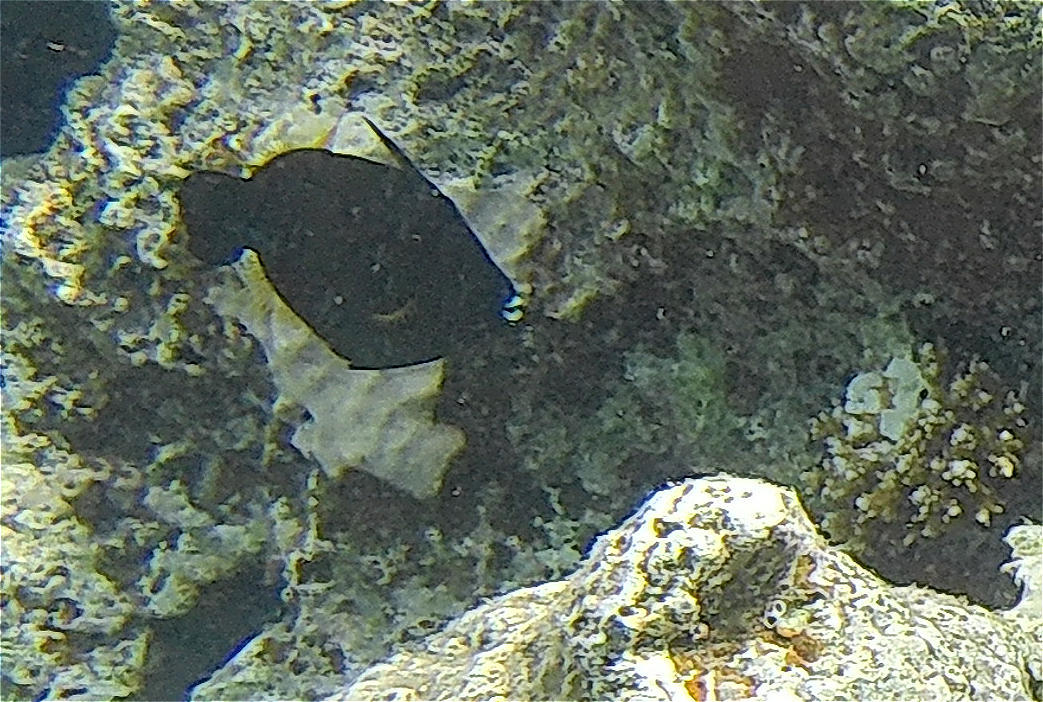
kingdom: Animalia
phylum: Chordata
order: Tetraodontiformes
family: Monacanthidae
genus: Amanses
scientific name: Amanses scopas
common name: Broom filefish
